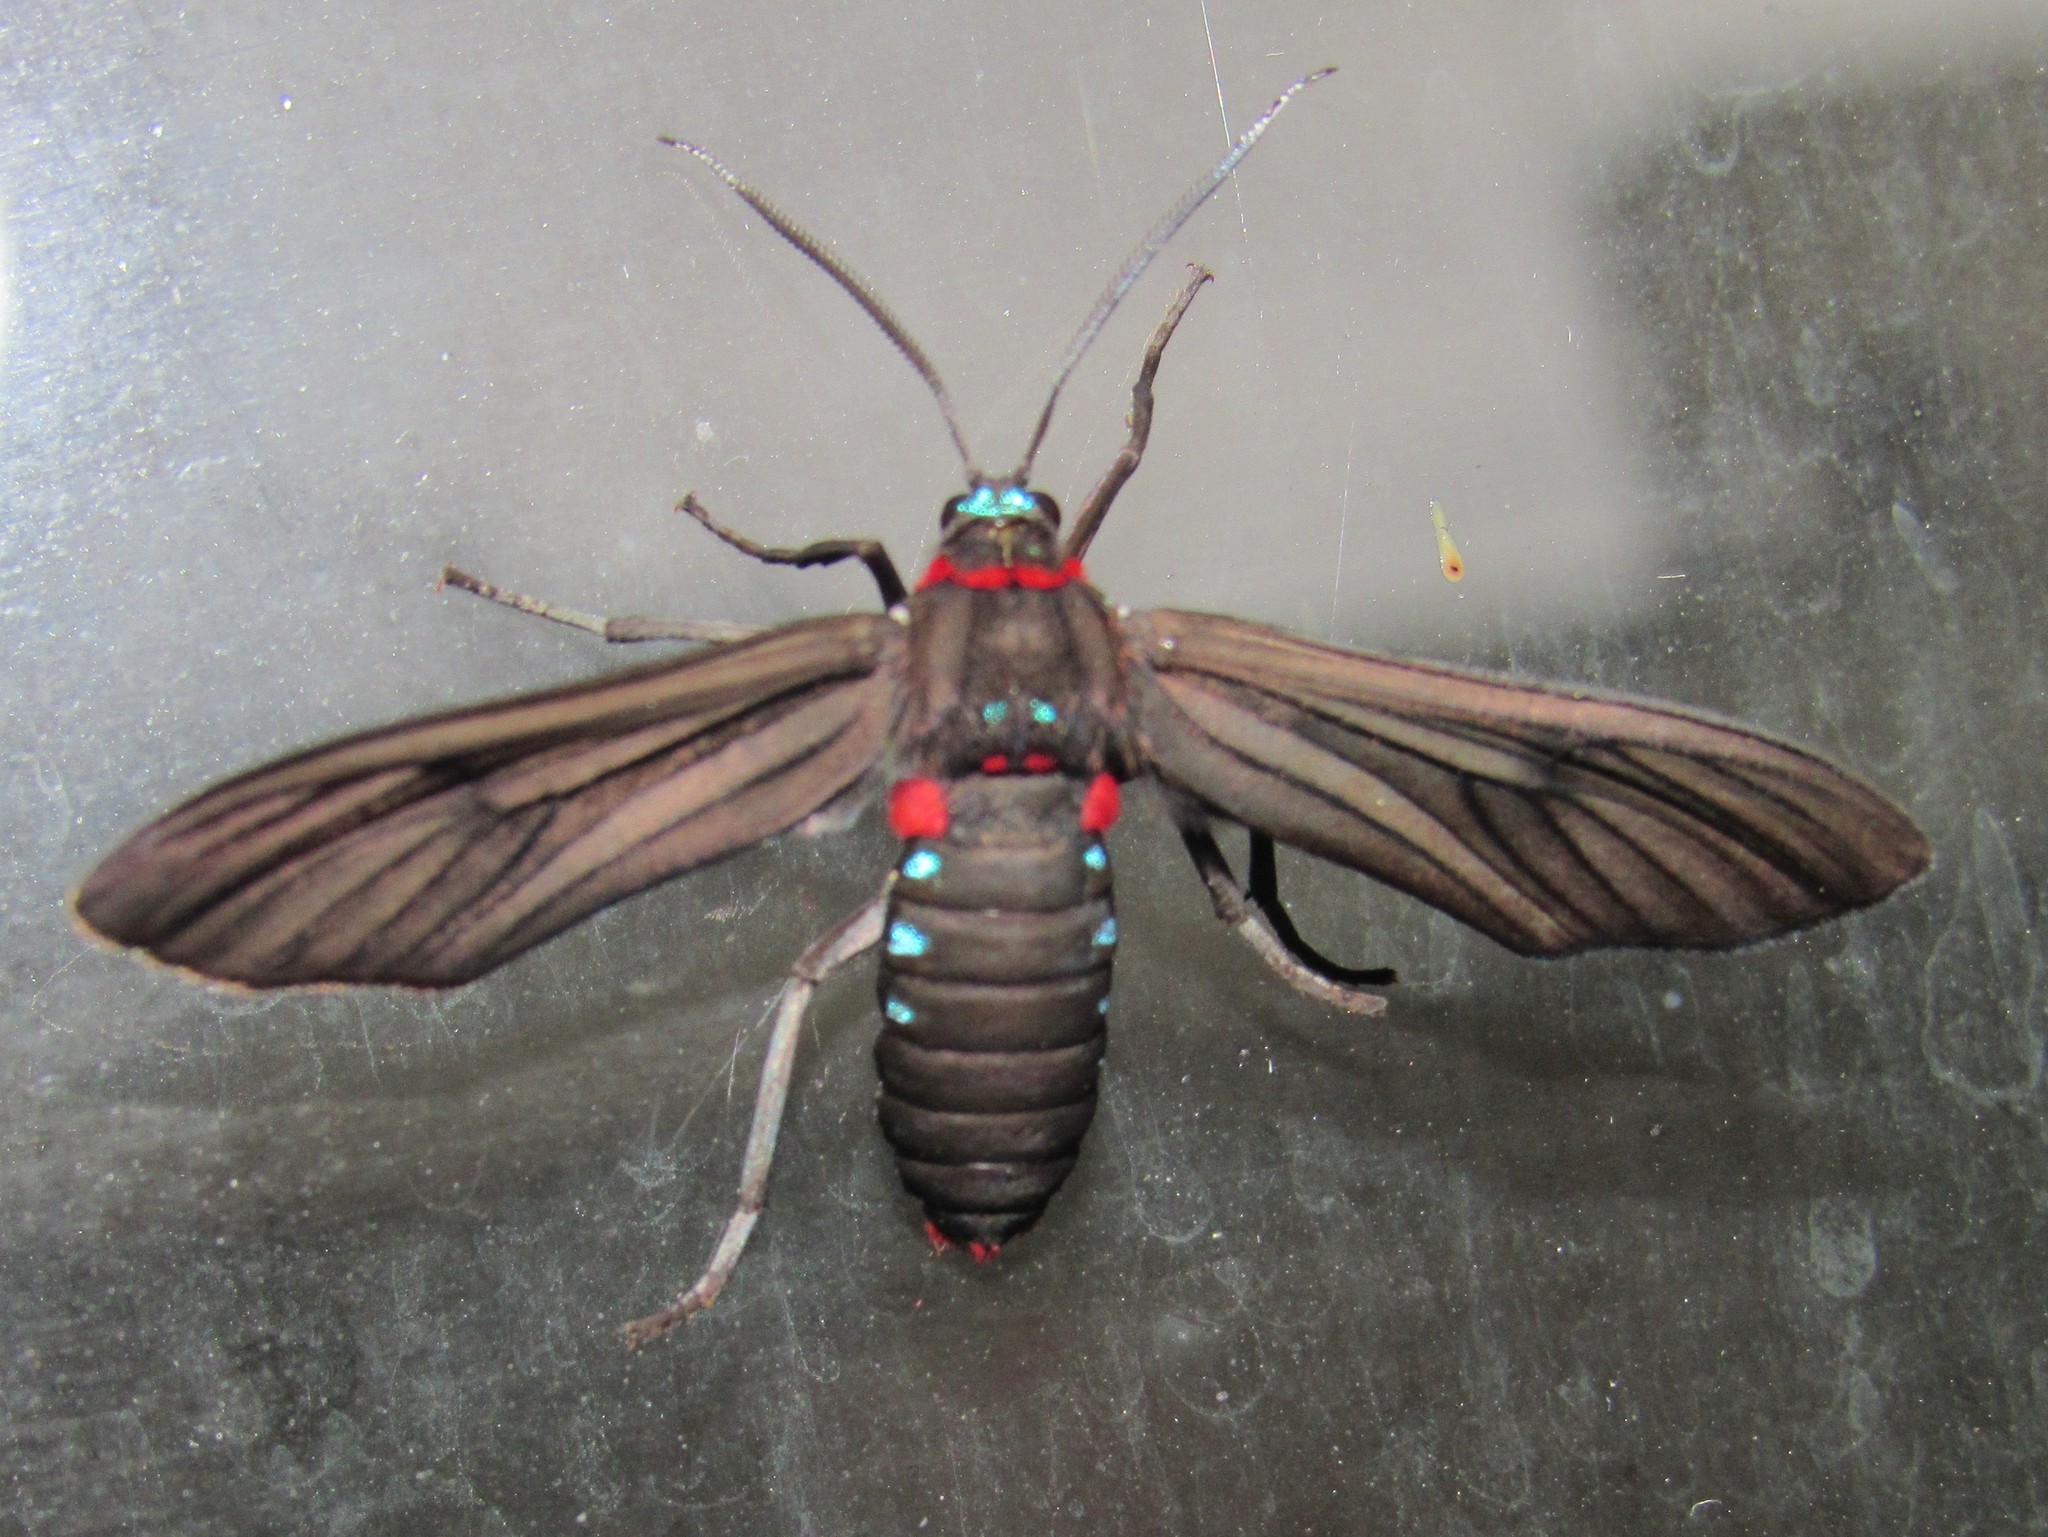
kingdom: Animalia
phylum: Arthropoda
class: Insecta
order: Lepidoptera
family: Erebidae
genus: Saurita
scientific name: Saurita cassandra
